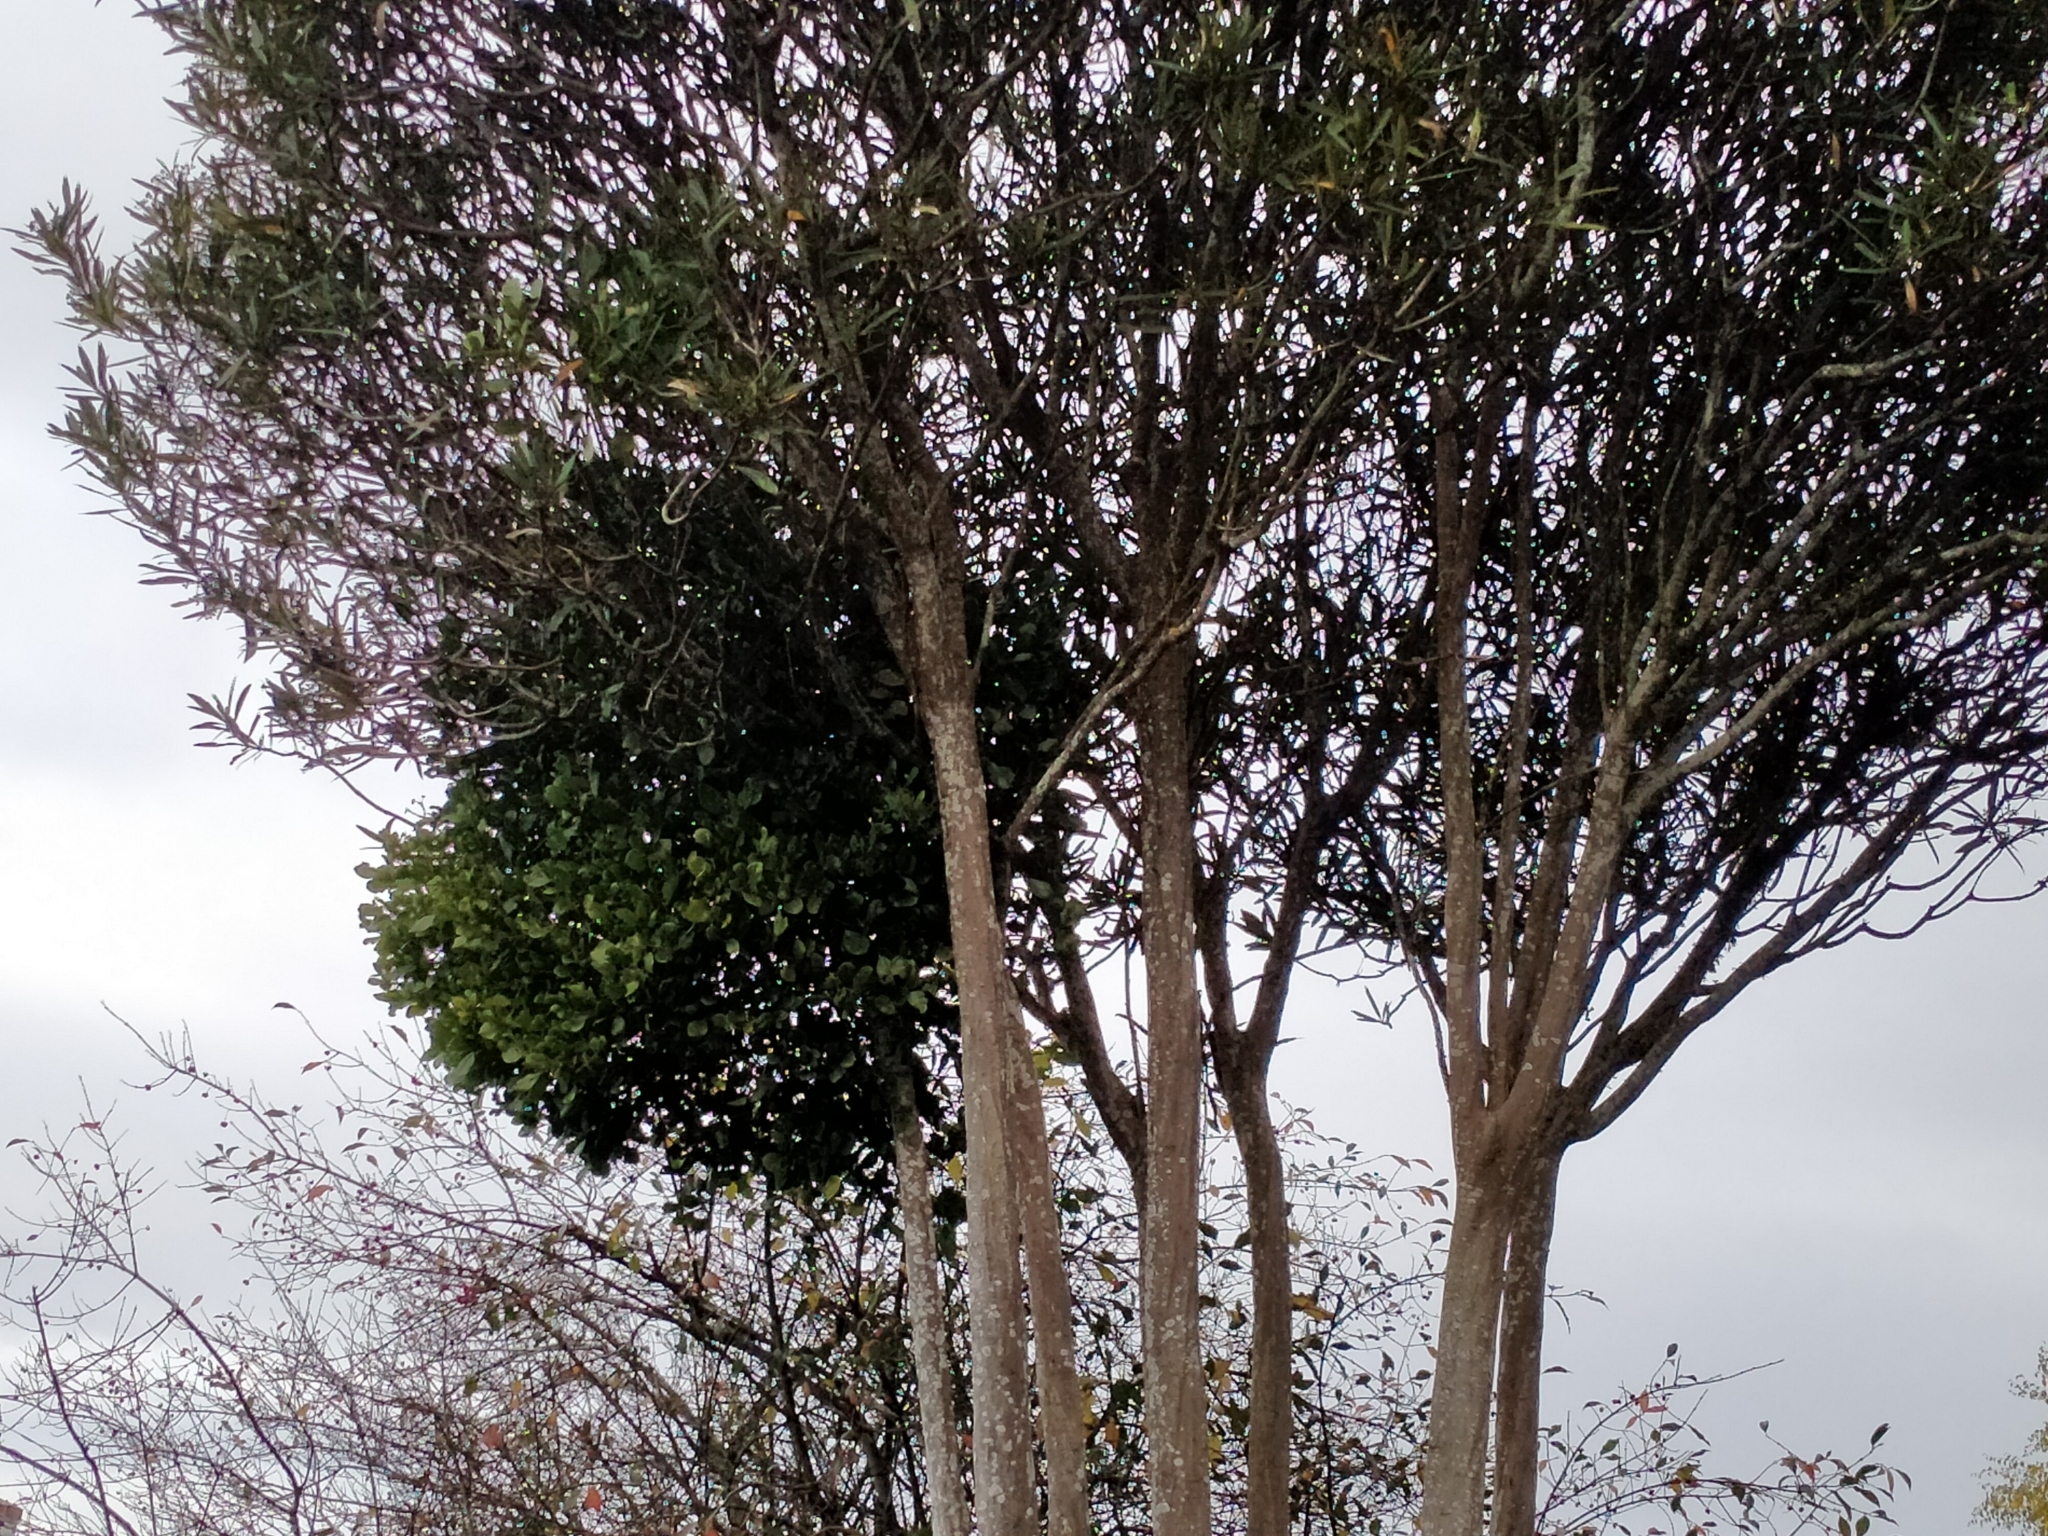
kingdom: Plantae
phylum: Tracheophyta
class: Magnoliopsida
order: Santalales
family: Loranthaceae
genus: Ileostylus
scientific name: Ileostylus micranthus
